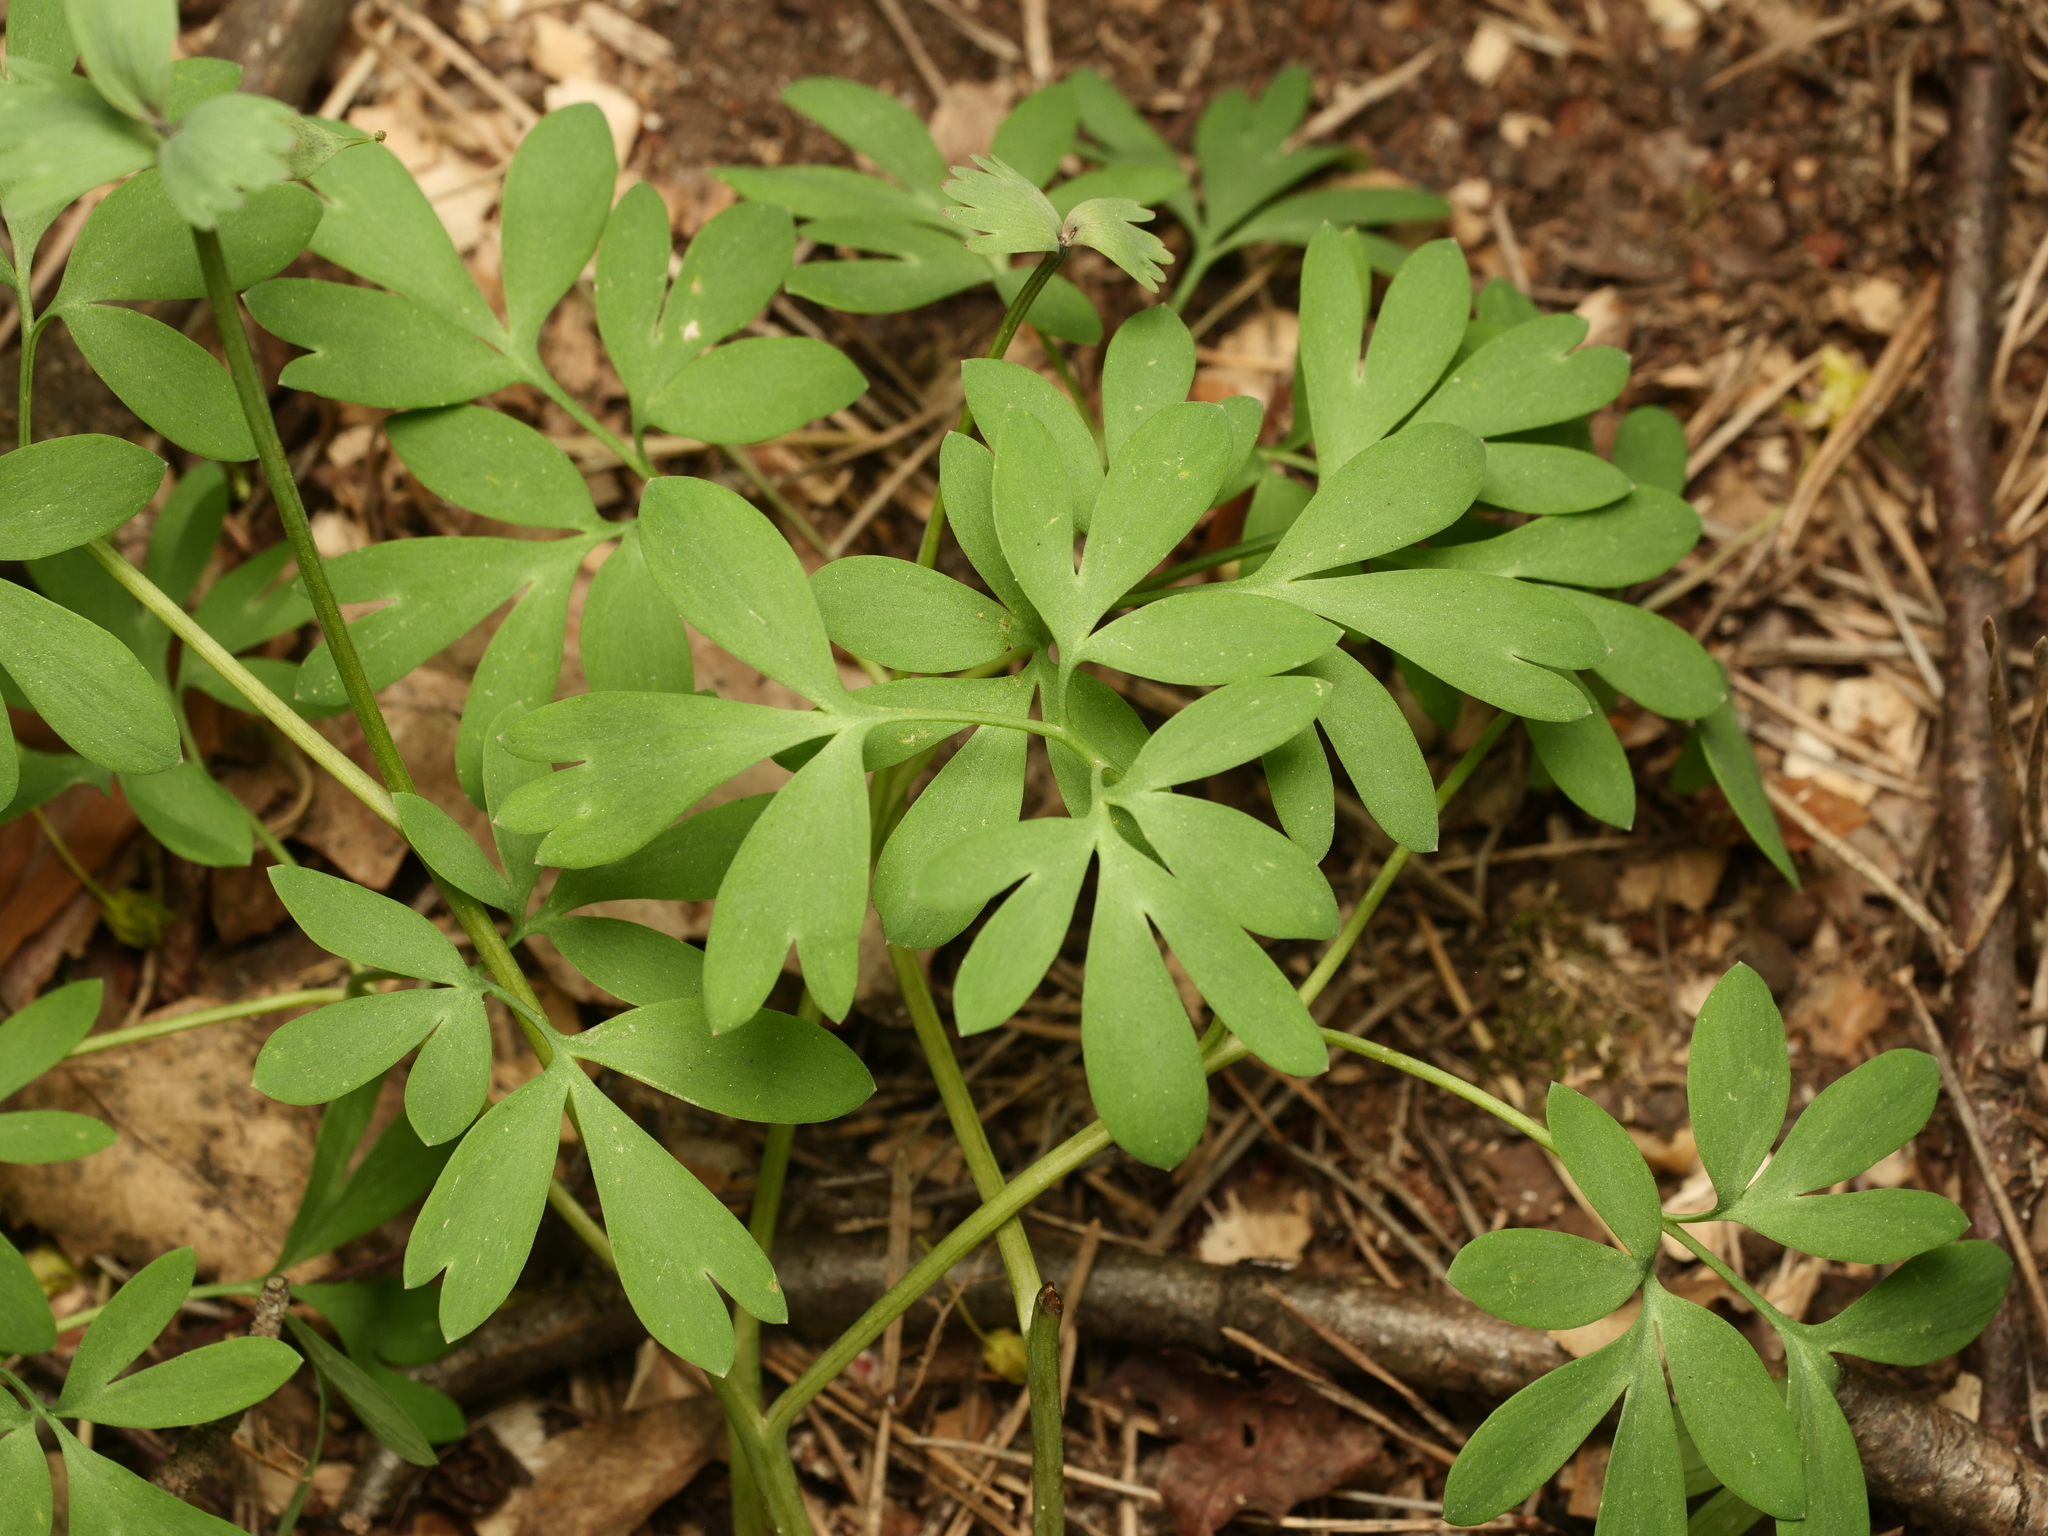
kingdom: Plantae
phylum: Tracheophyta
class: Magnoliopsida
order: Ranunculales
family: Papaveraceae
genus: Corydalis
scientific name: Corydalis solida
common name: Bird-in-a-bush
